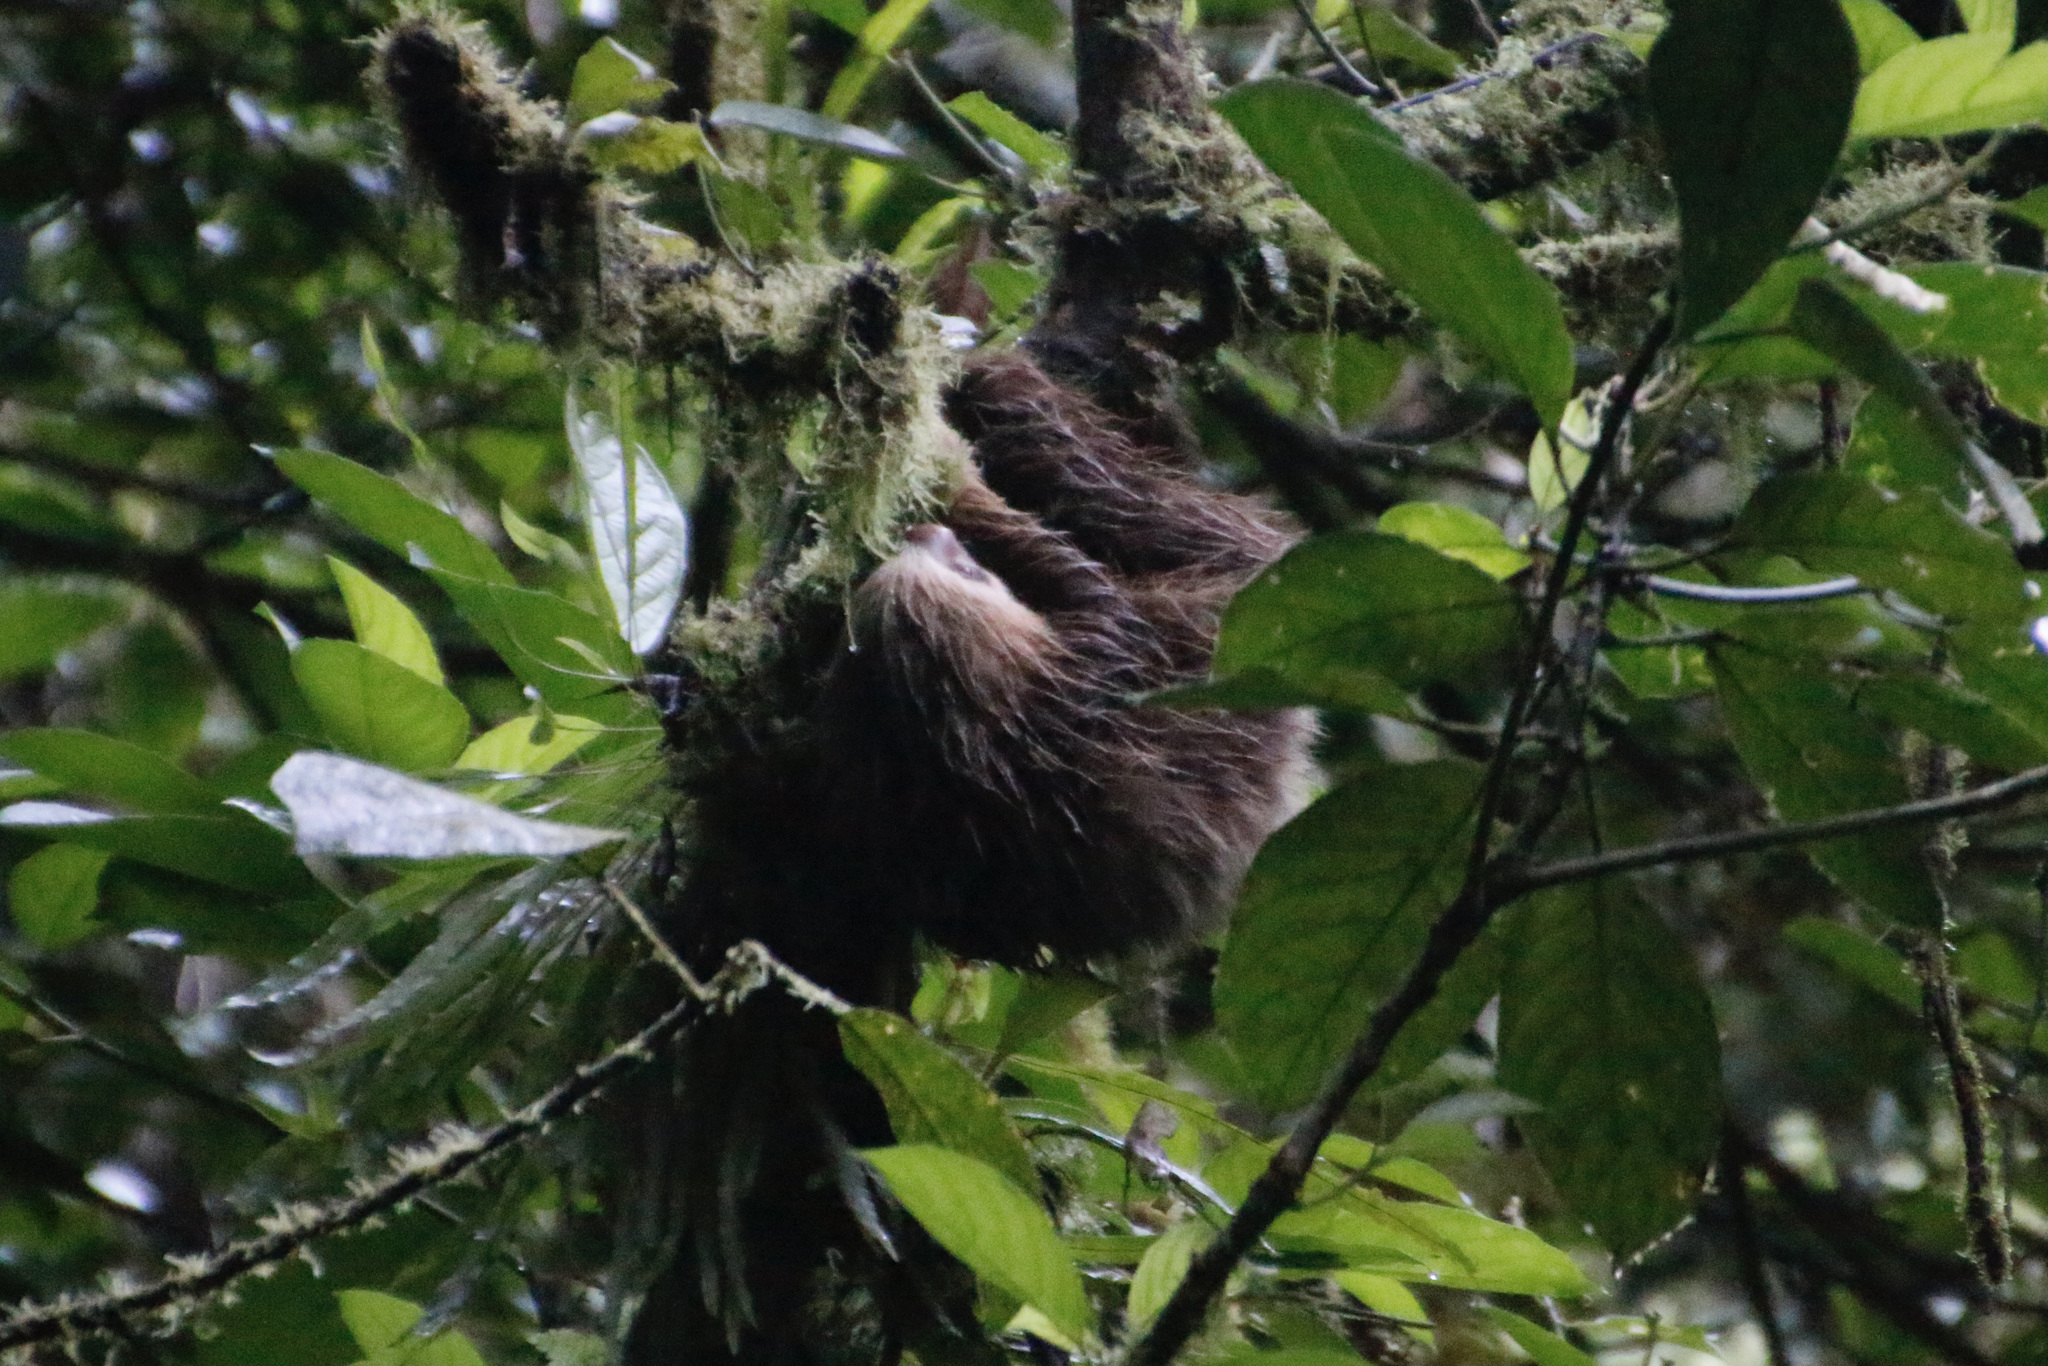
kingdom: Animalia
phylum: Chordata
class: Mammalia
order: Pilosa
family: Megalonychidae
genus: Choloepus
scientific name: Choloepus hoffmanni
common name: Hoffmann's two-toed sloth
